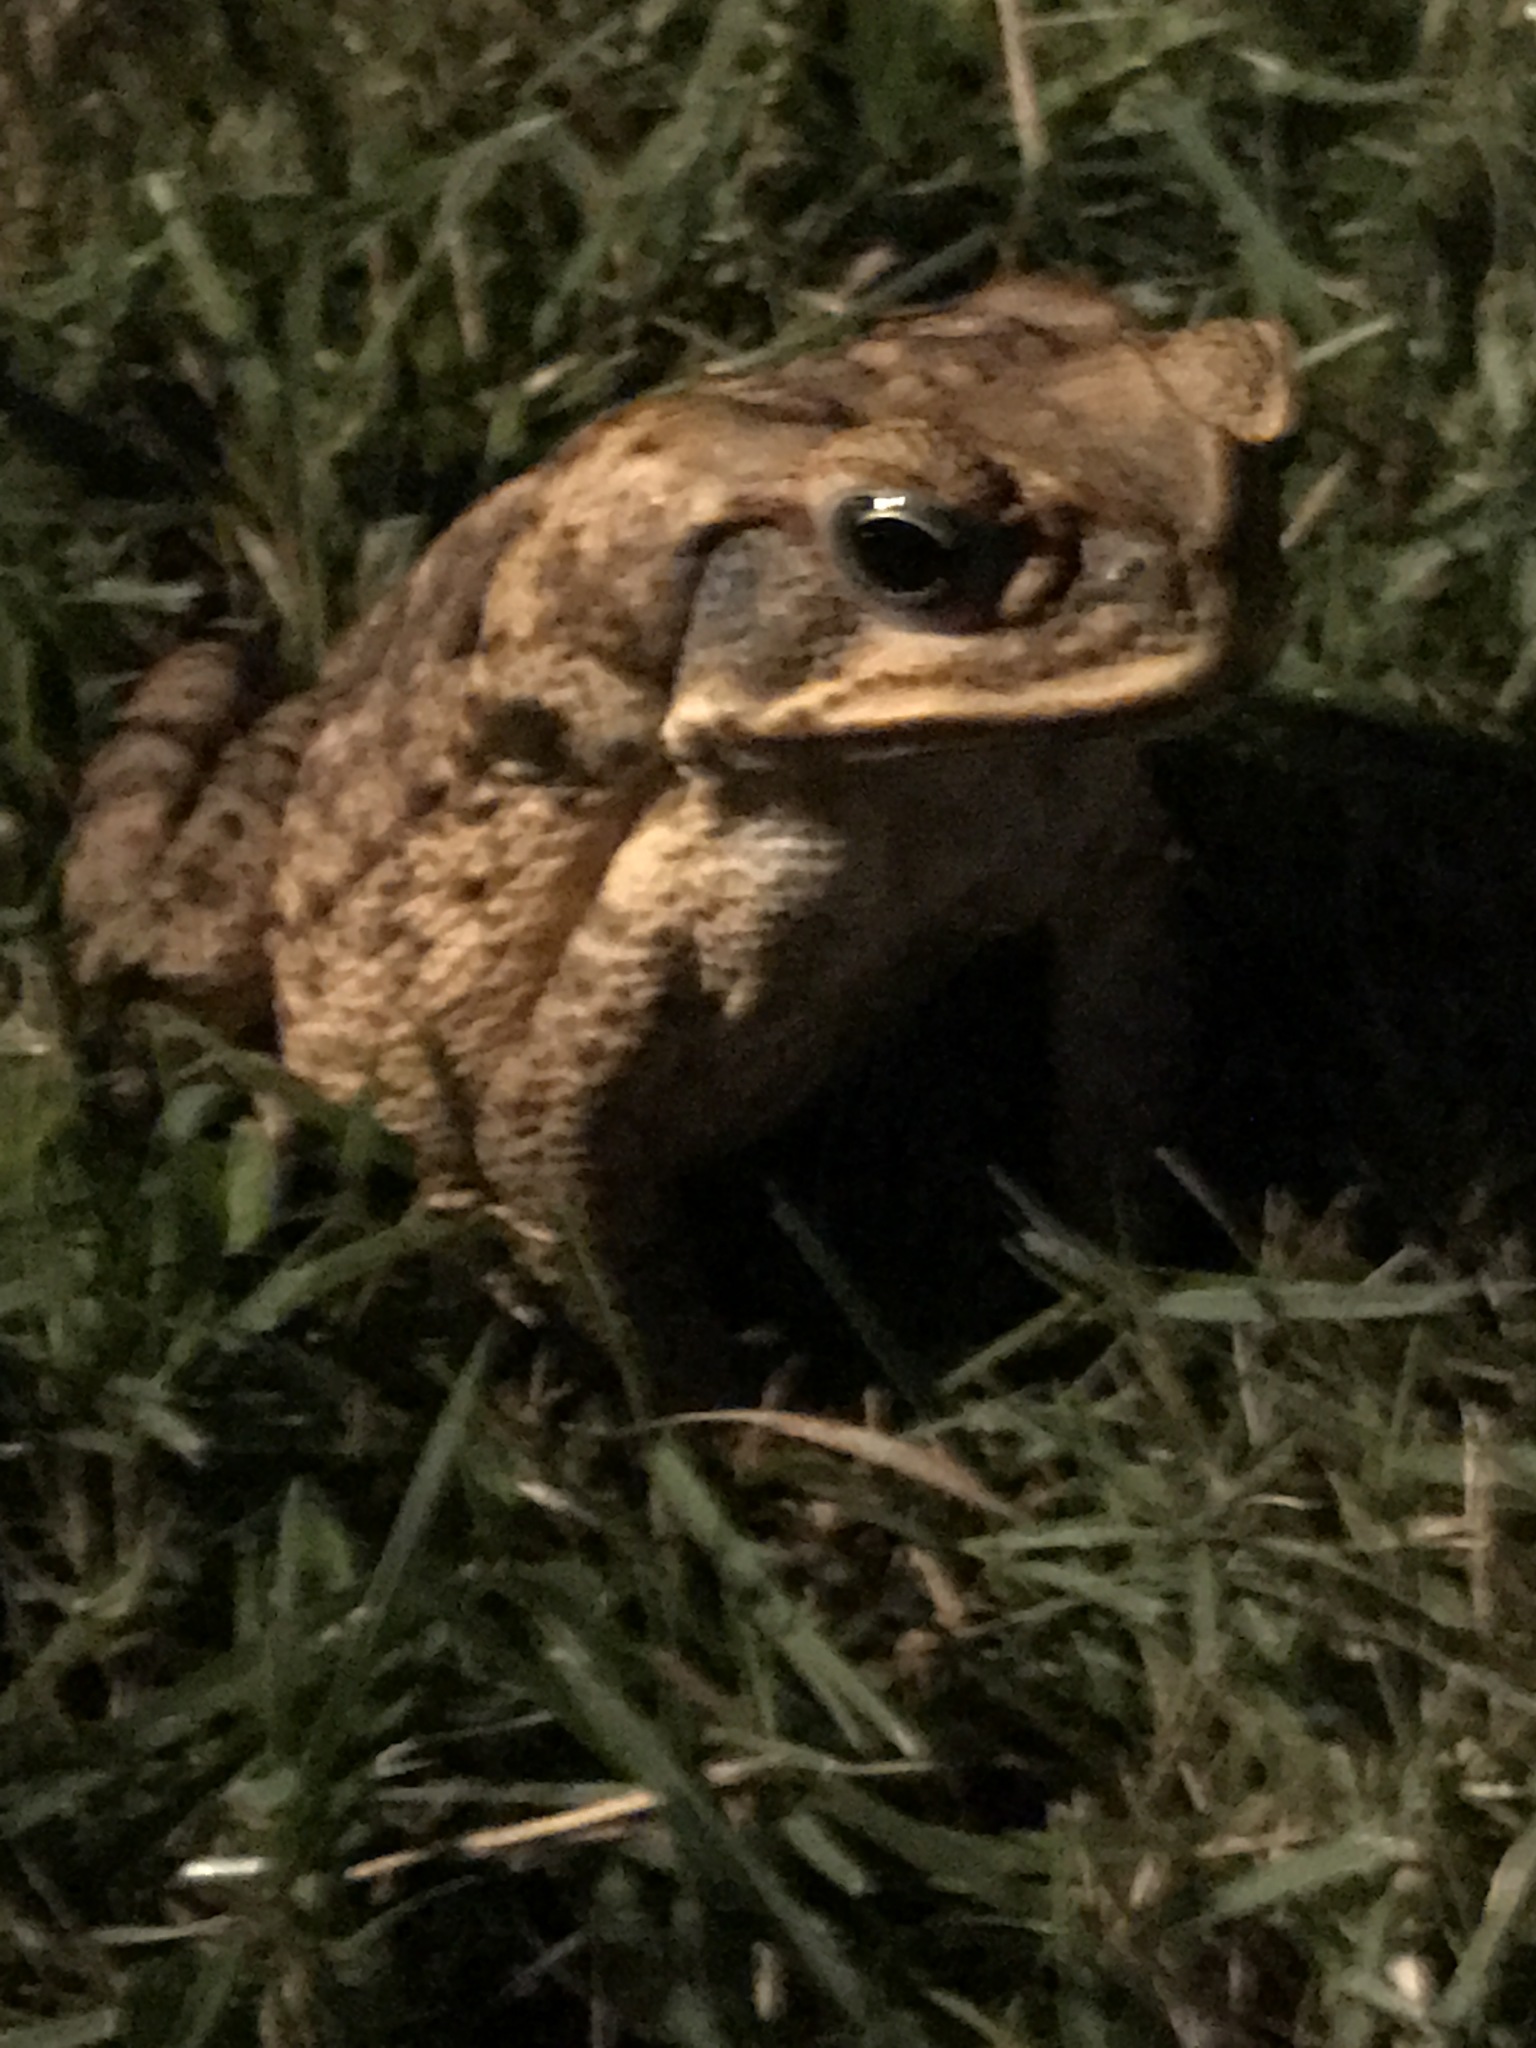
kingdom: Animalia
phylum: Chordata
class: Amphibia
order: Anura
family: Bufonidae
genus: Rhinella
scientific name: Rhinella marina
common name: Cane toad
